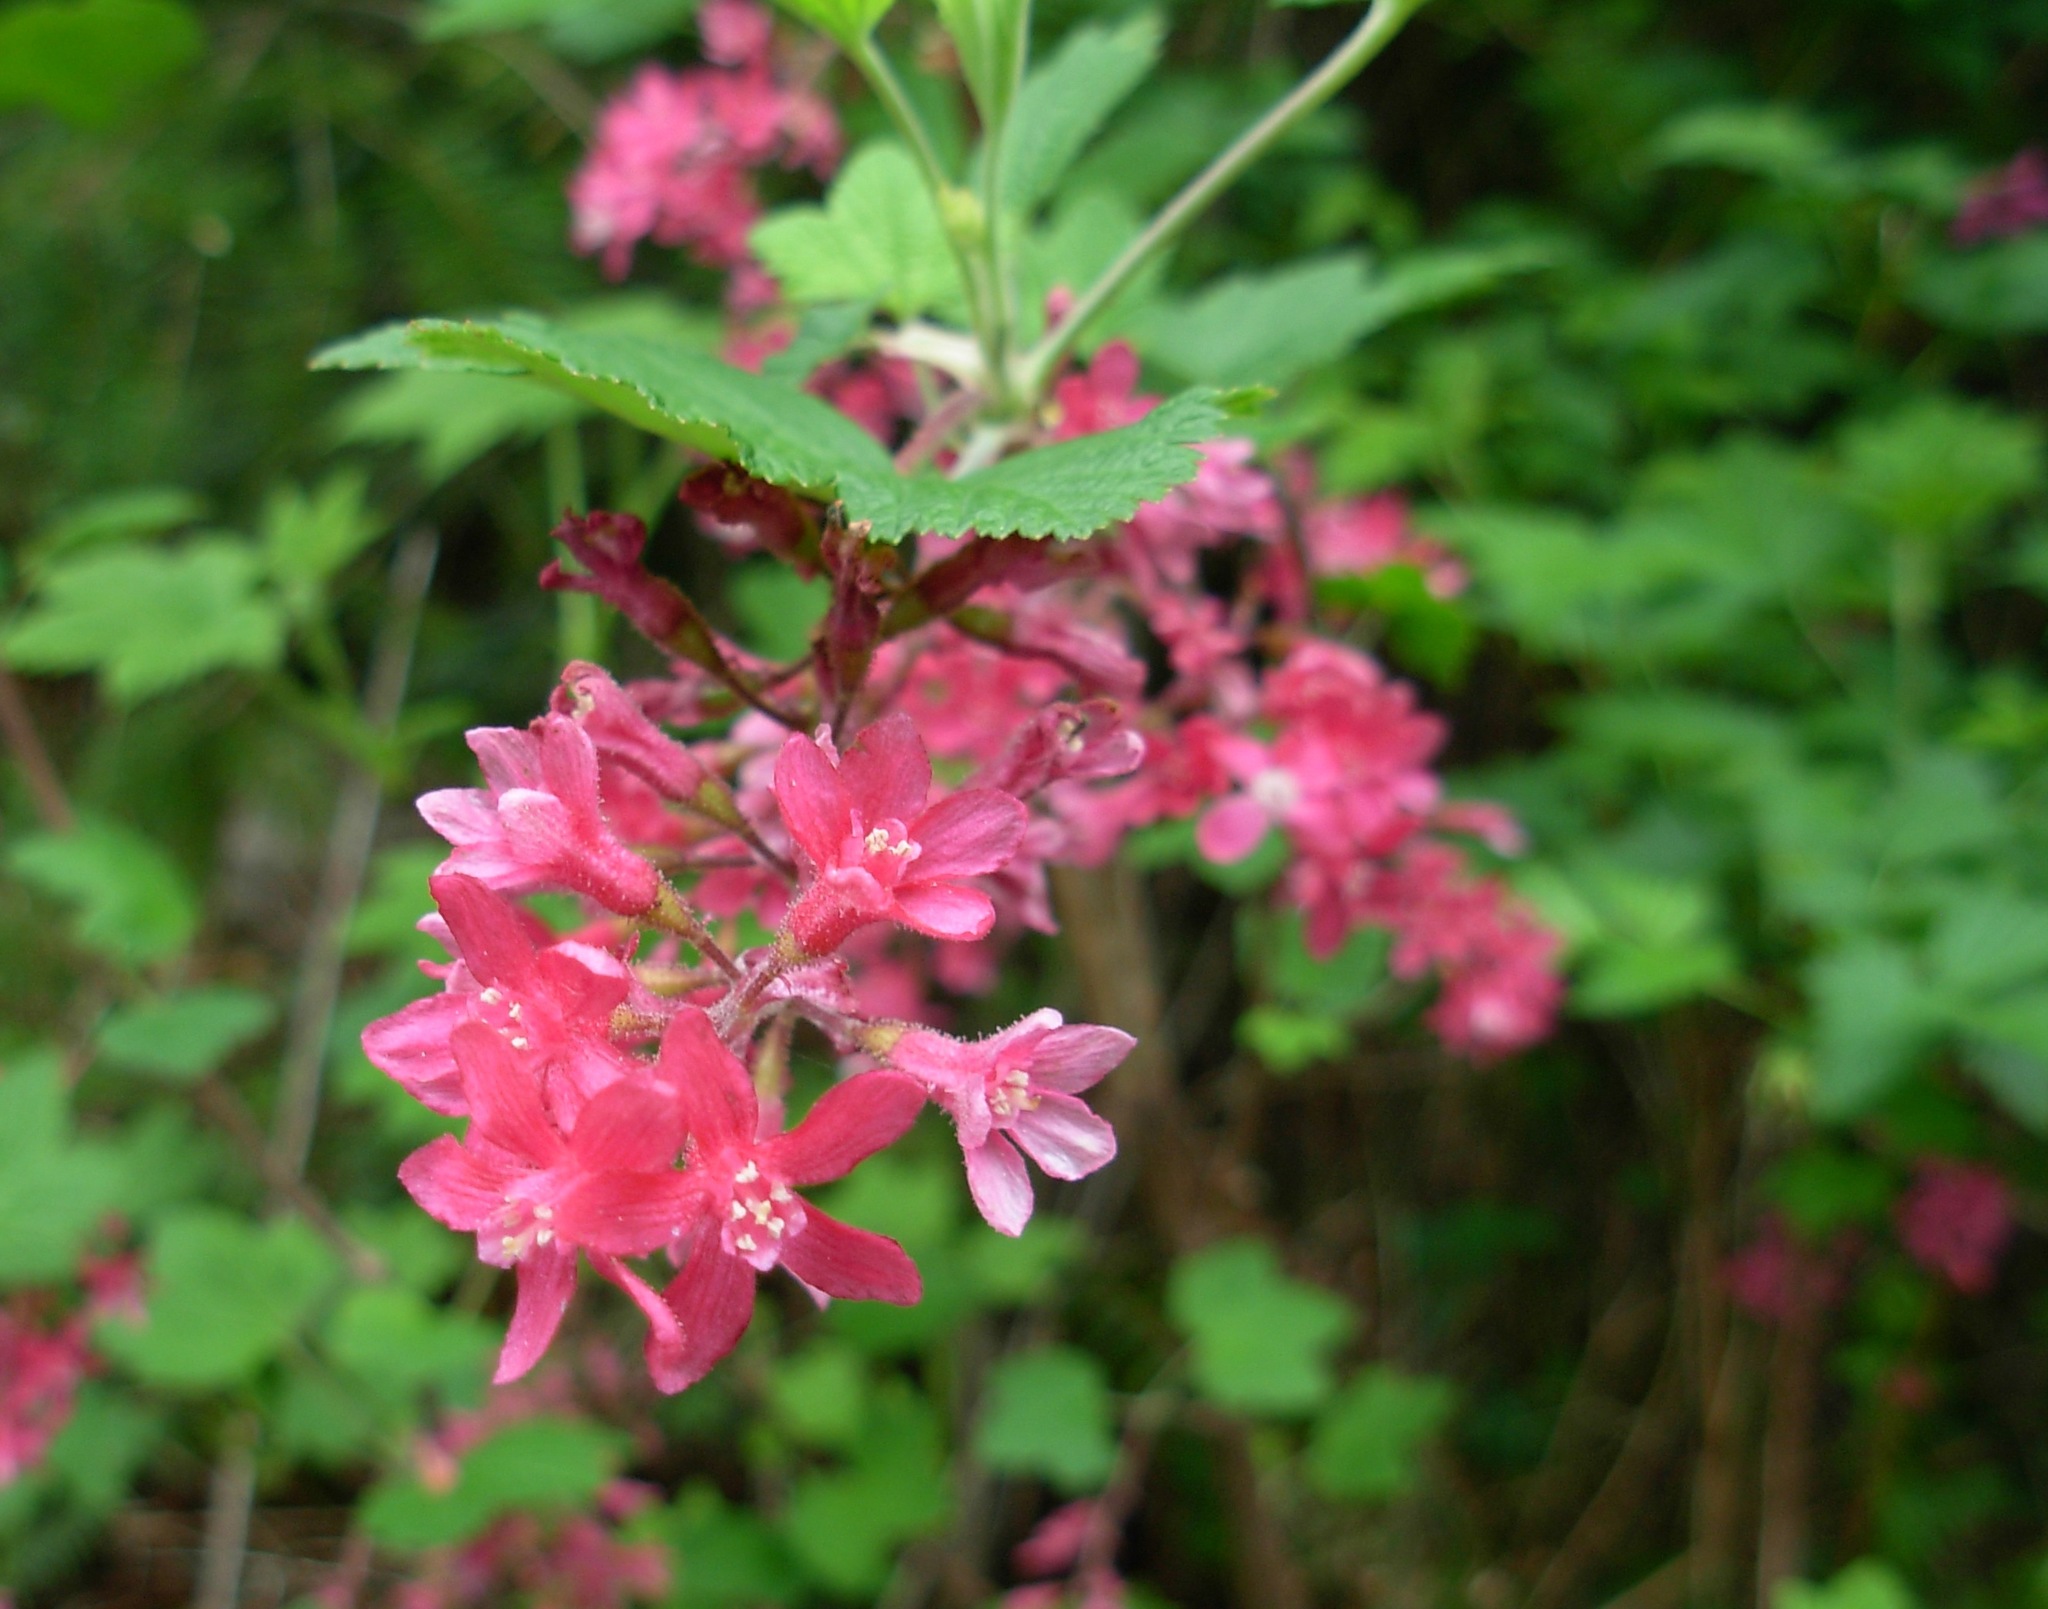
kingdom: Plantae
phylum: Tracheophyta
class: Magnoliopsida
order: Saxifragales
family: Grossulariaceae
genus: Ribes
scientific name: Ribes sanguineum
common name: Flowering currant
